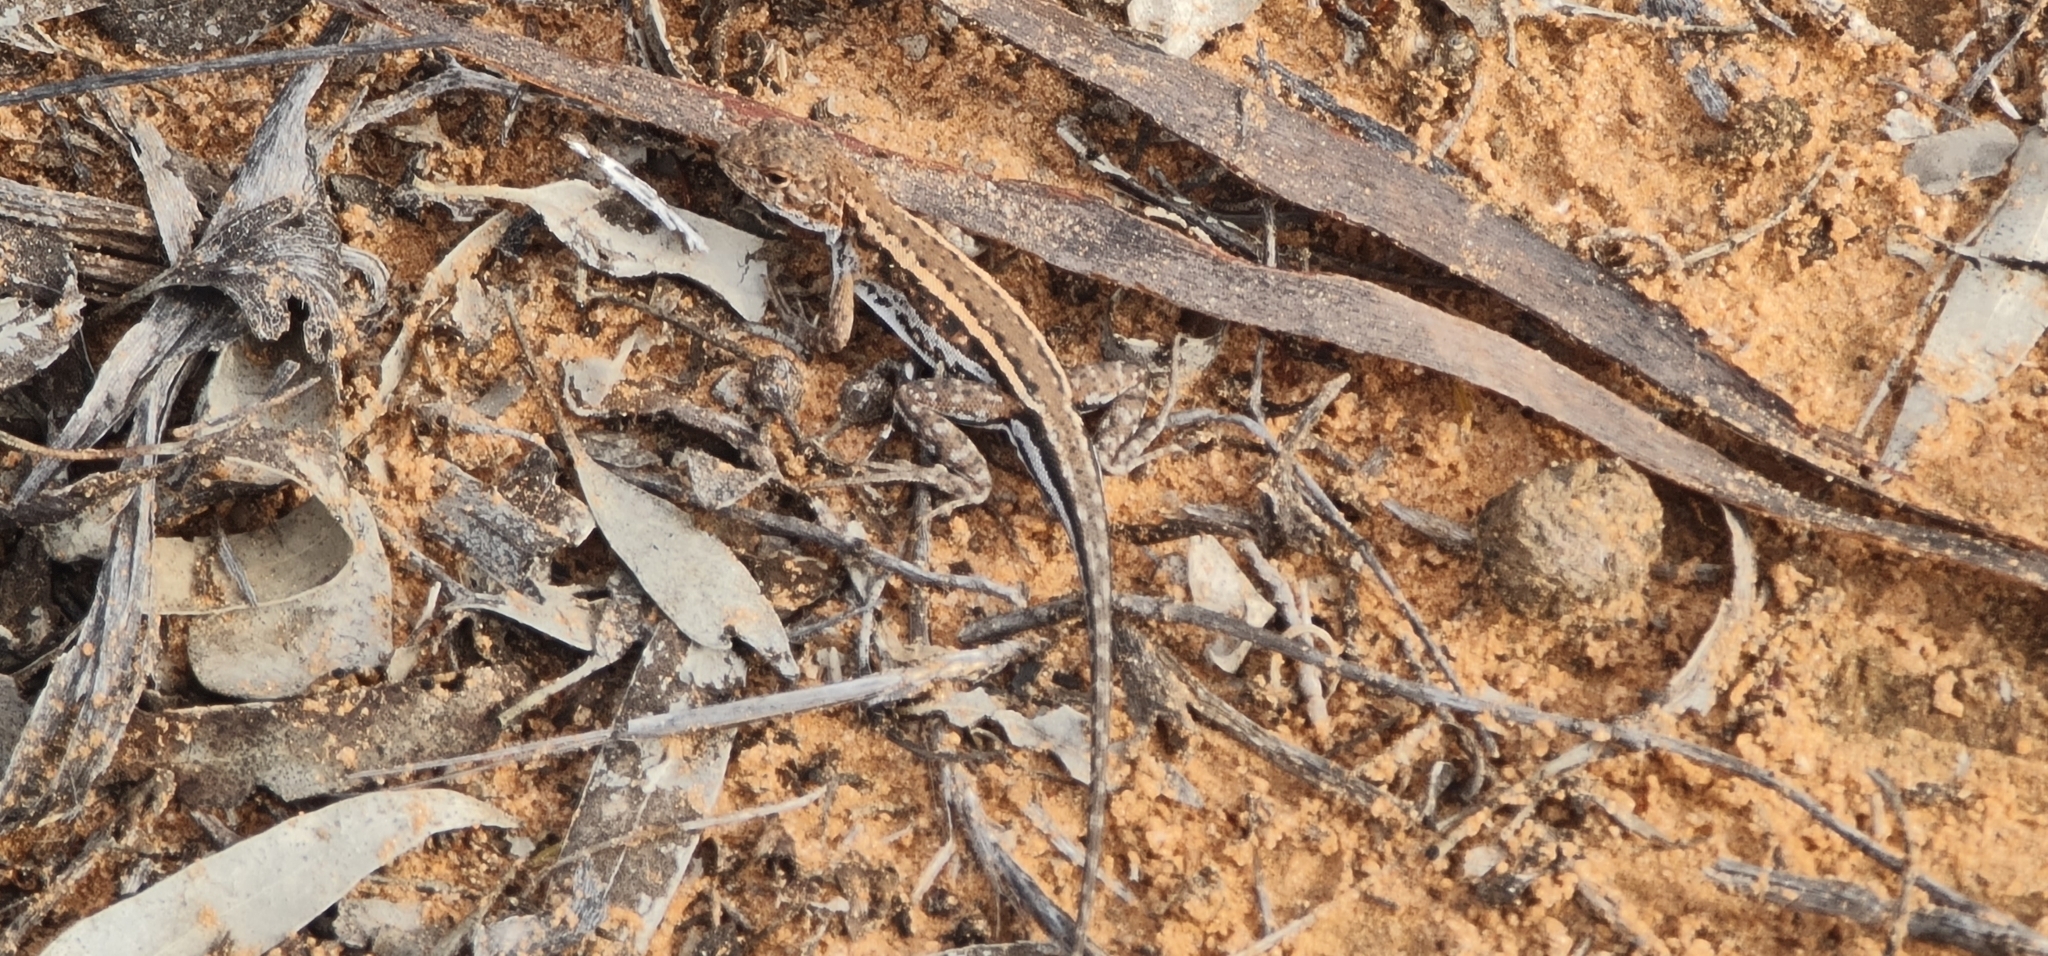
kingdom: Animalia
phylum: Chordata
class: Squamata
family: Agamidae
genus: Ctenophorus
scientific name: Ctenophorus spinodomus
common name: Eastern mallee dragon
